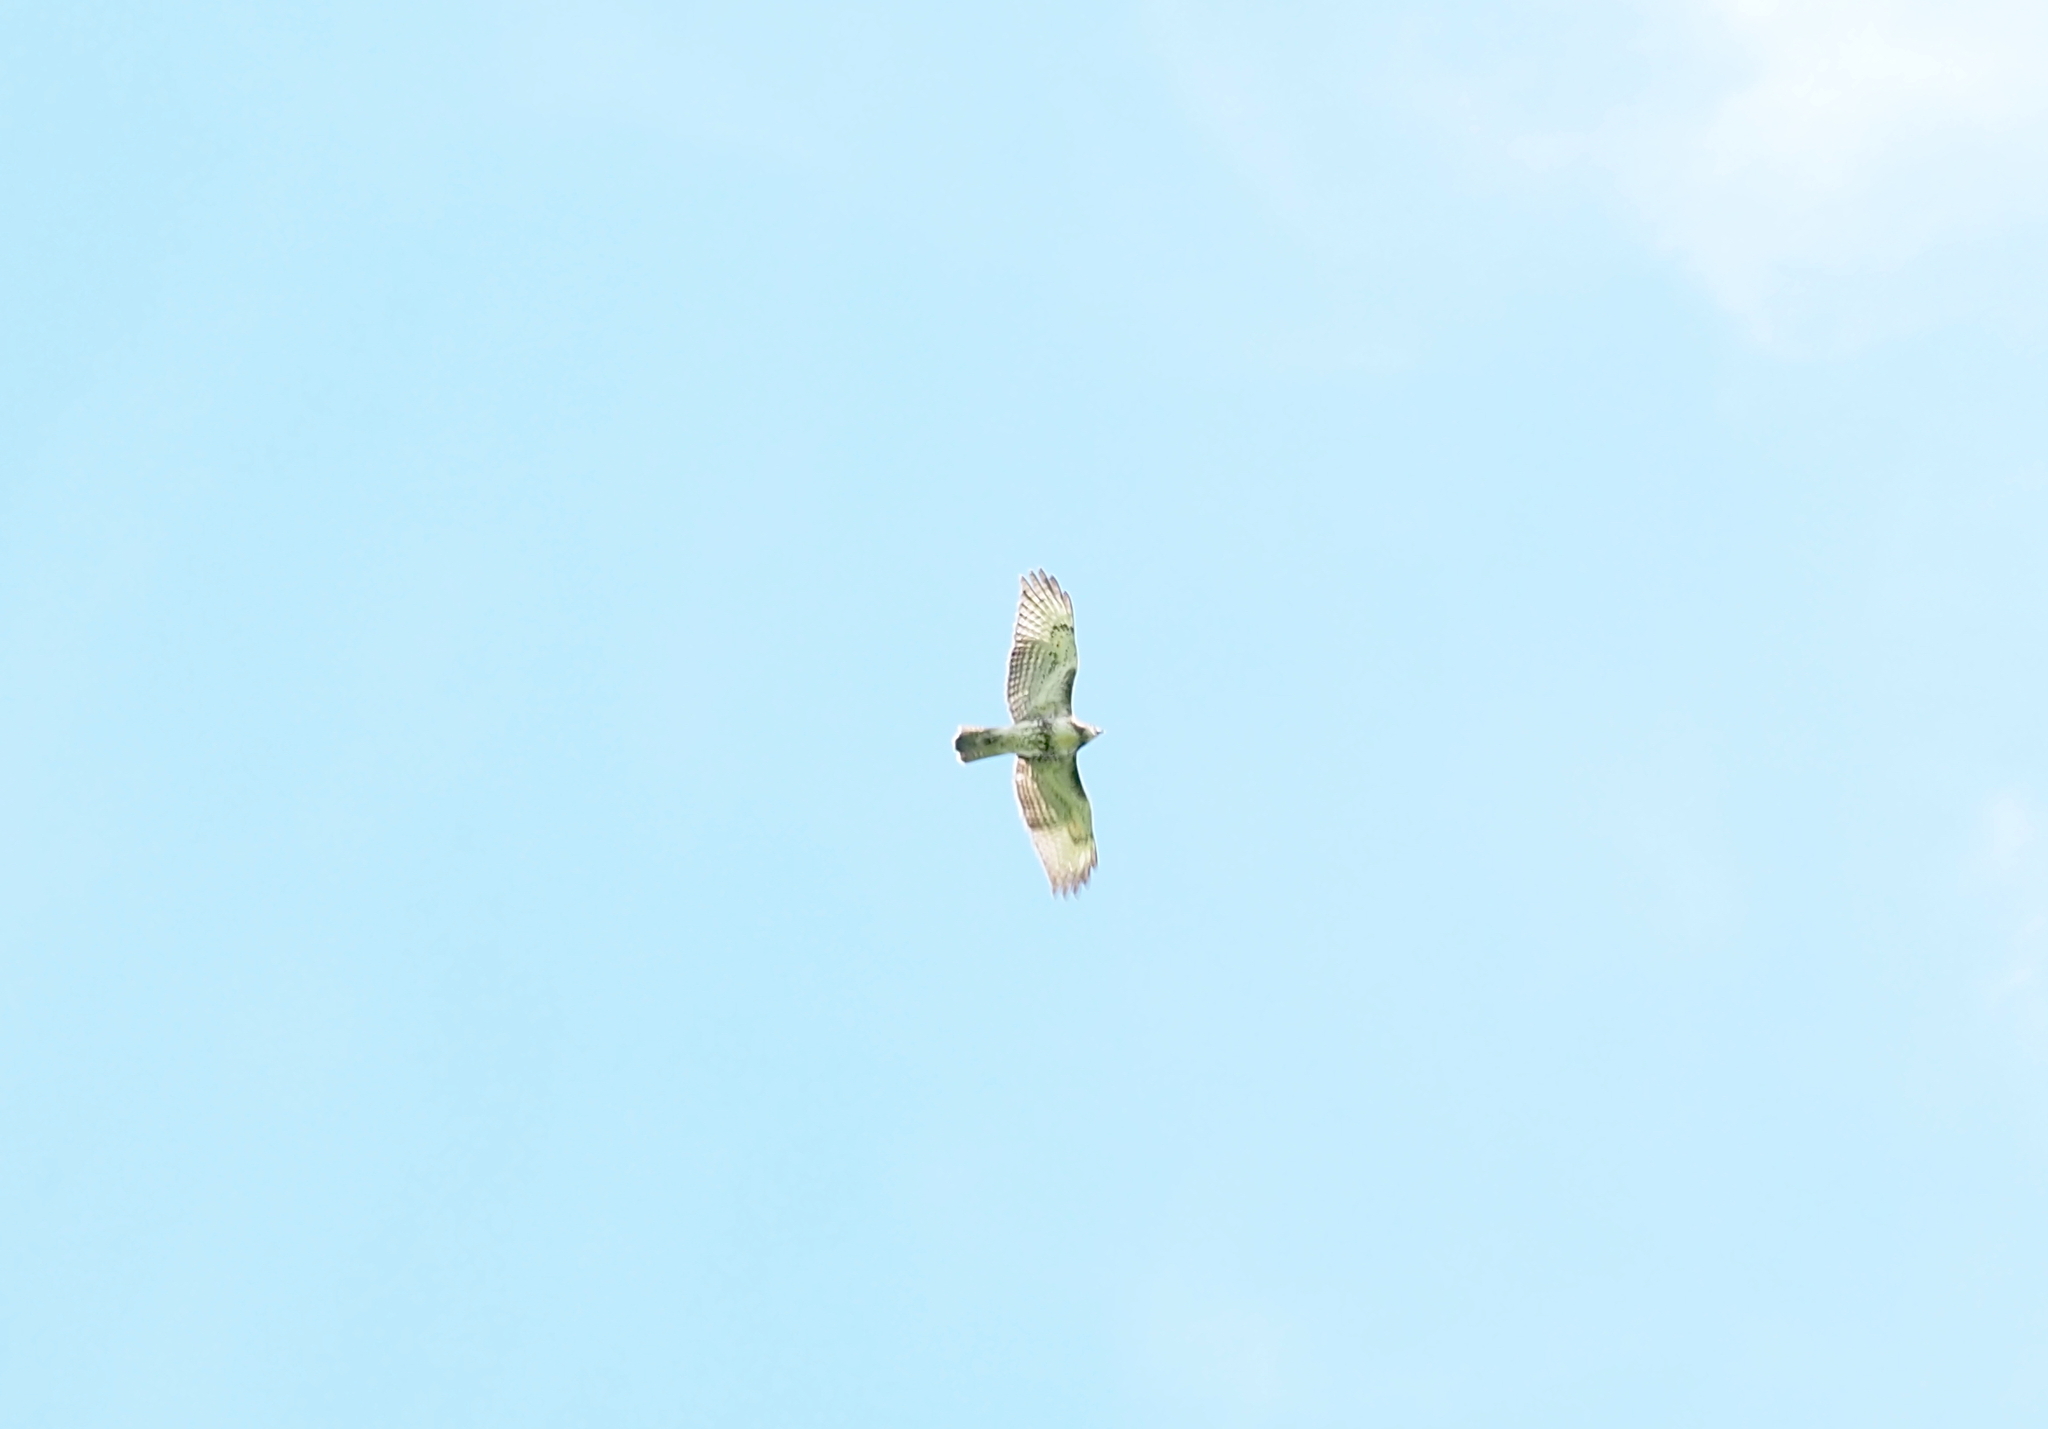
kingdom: Animalia
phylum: Chordata
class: Aves
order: Accipitriformes
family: Accipitridae
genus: Buteo
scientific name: Buteo jamaicensis
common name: Red-tailed hawk
